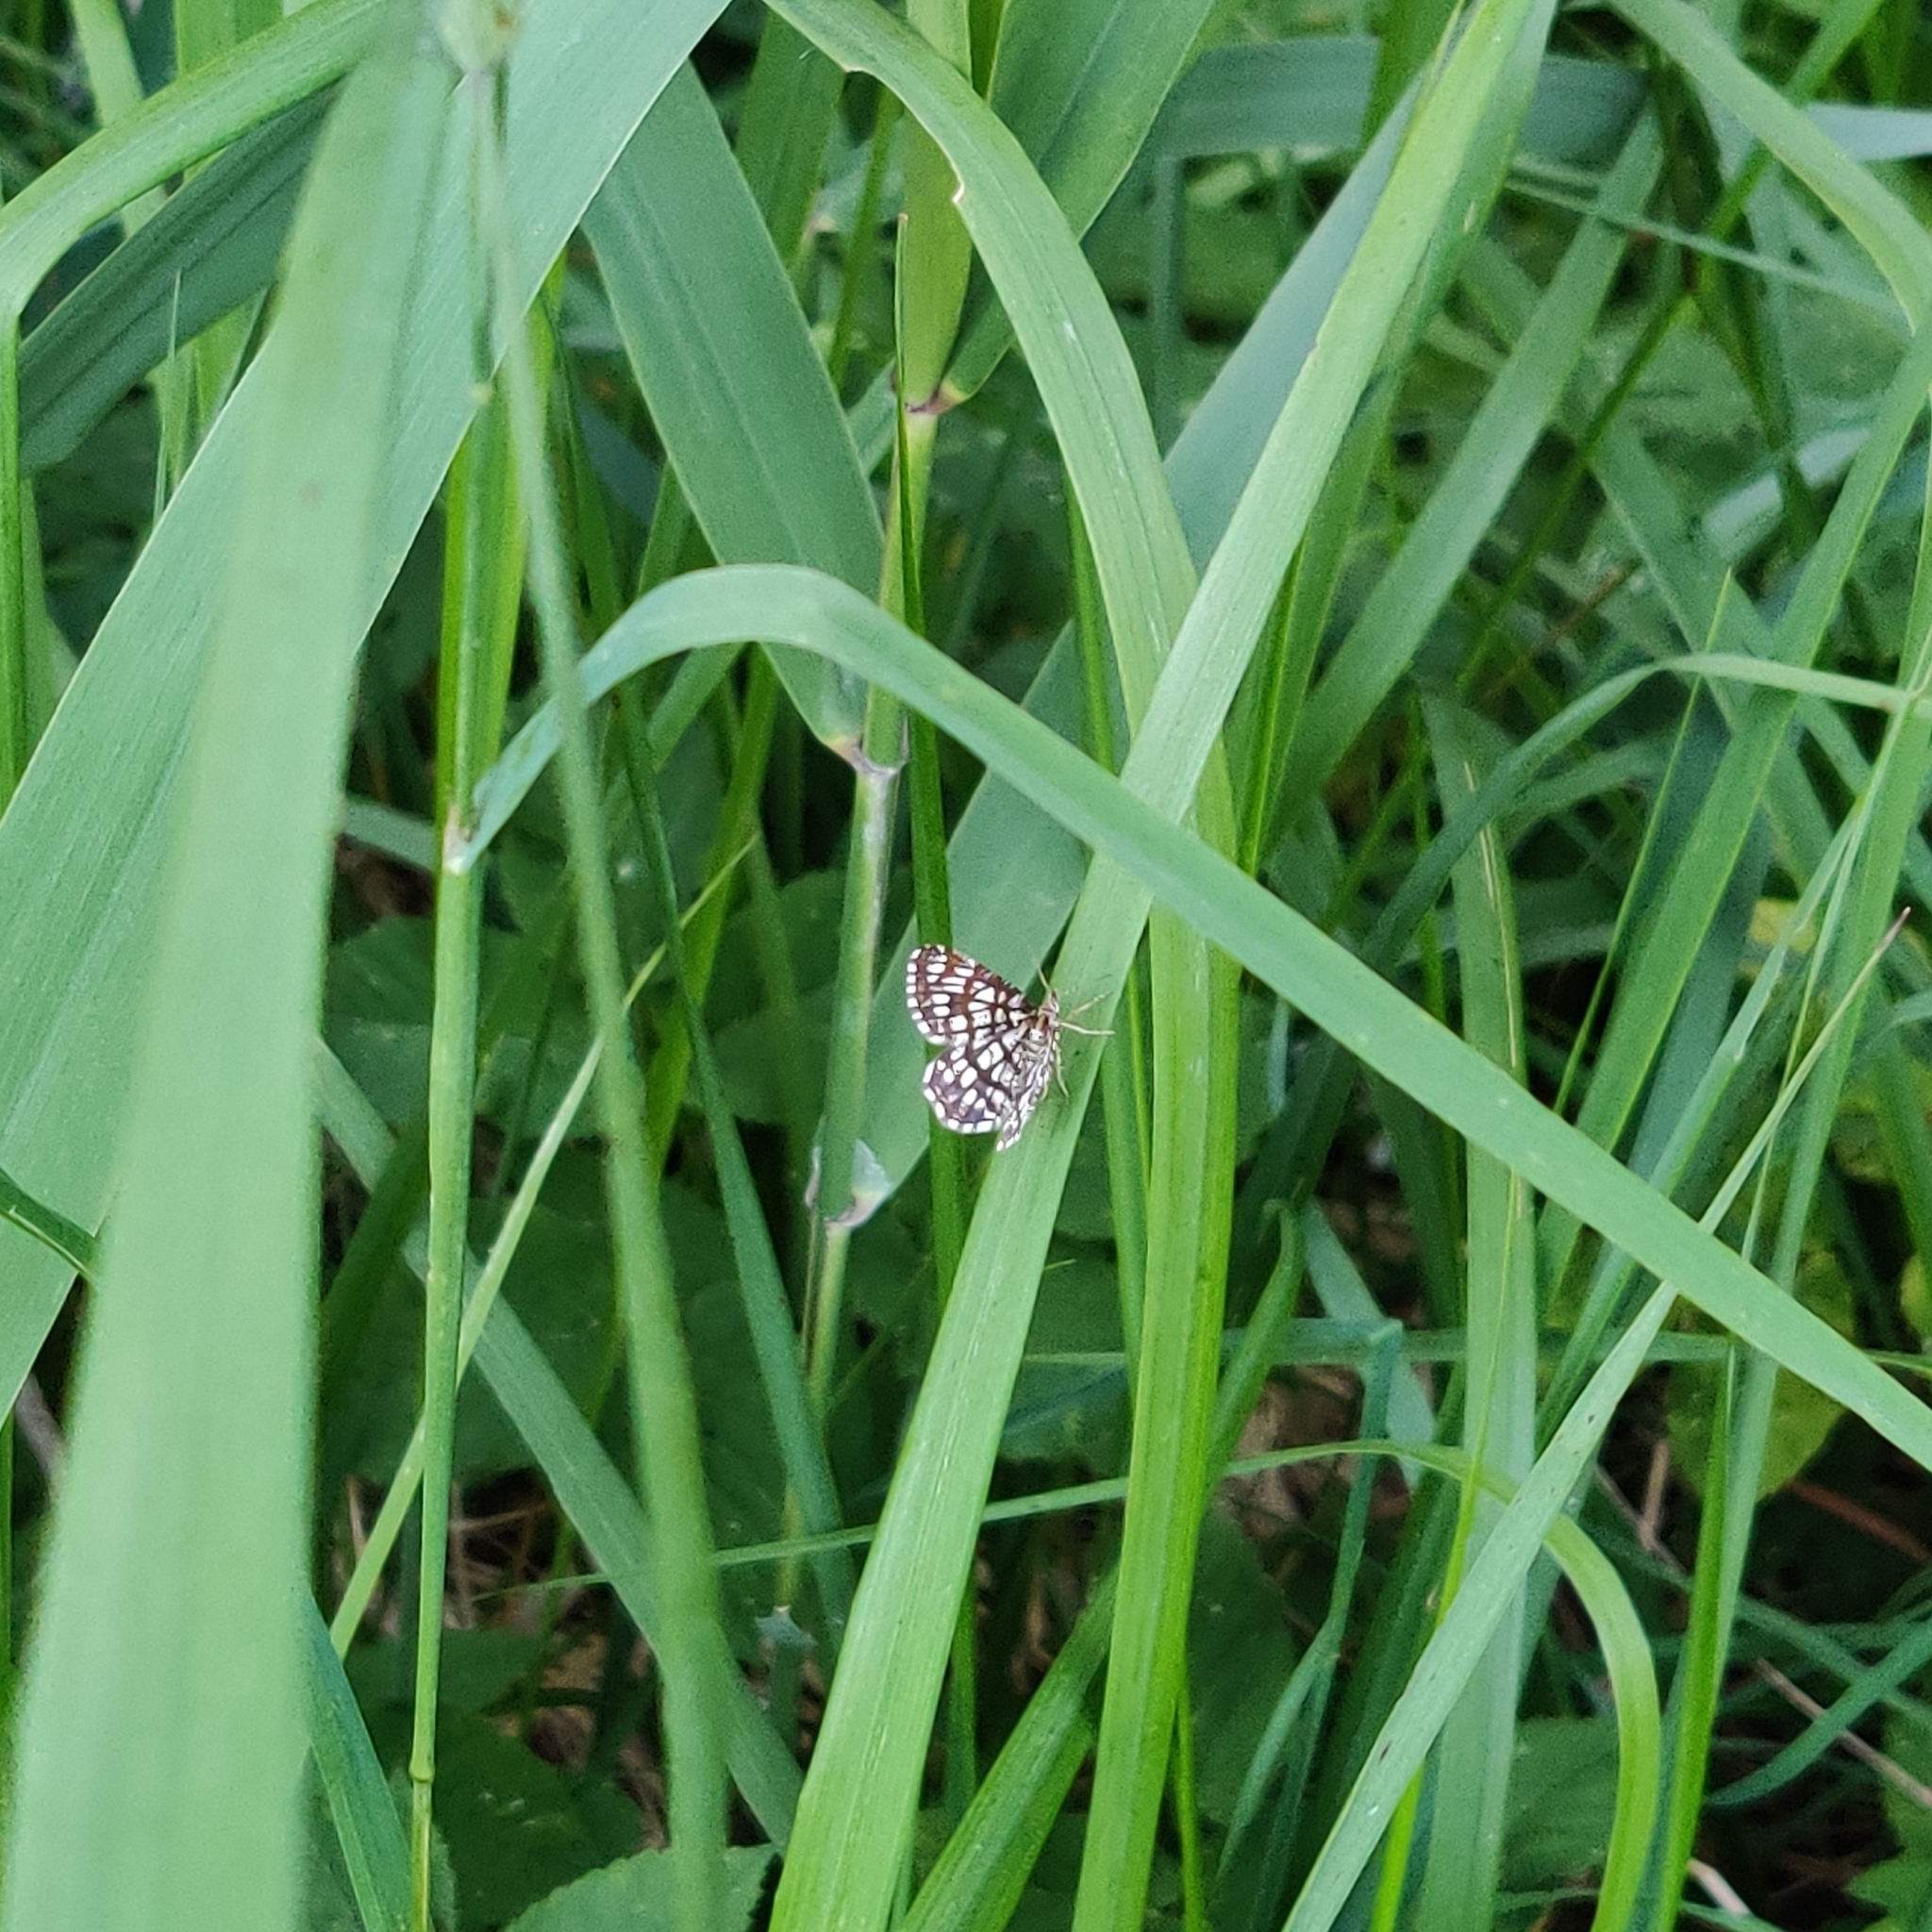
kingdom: Animalia
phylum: Arthropoda
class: Insecta
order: Lepidoptera
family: Geometridae
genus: Chiasmia
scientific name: Chiasmia clathrata
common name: Latticed heath
